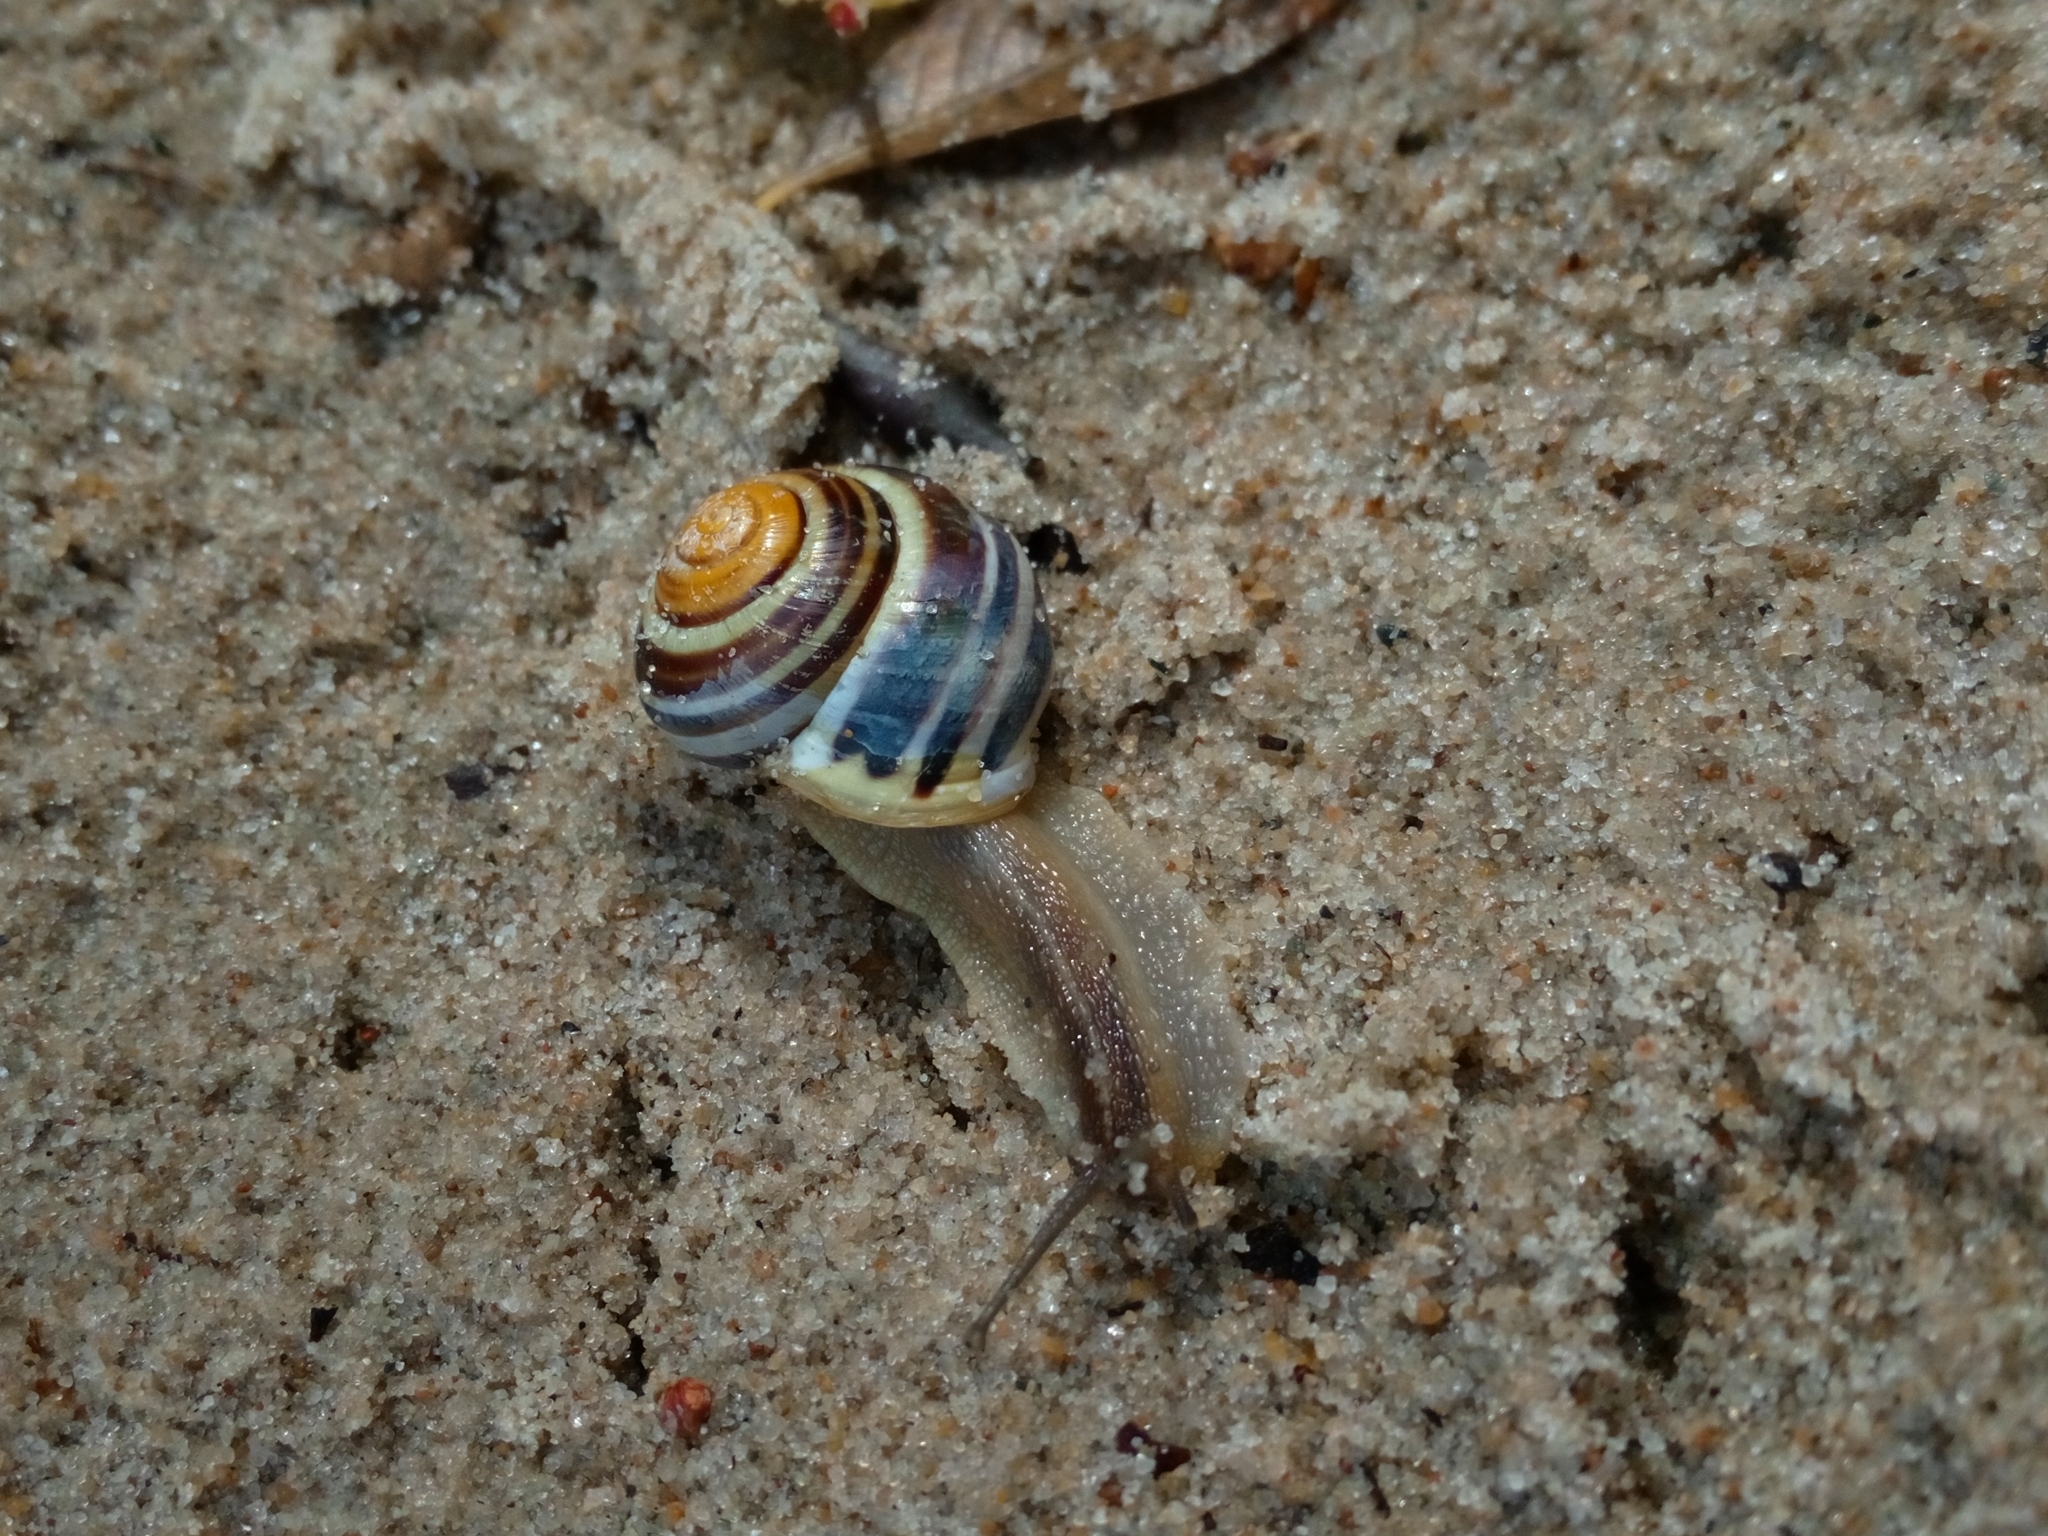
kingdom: Animalia
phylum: Mollusca
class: Gastropoda
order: Stylommatophora
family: Helicidae
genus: Cepaea
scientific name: Cepaea hortensis
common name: White-lip gardensnail
